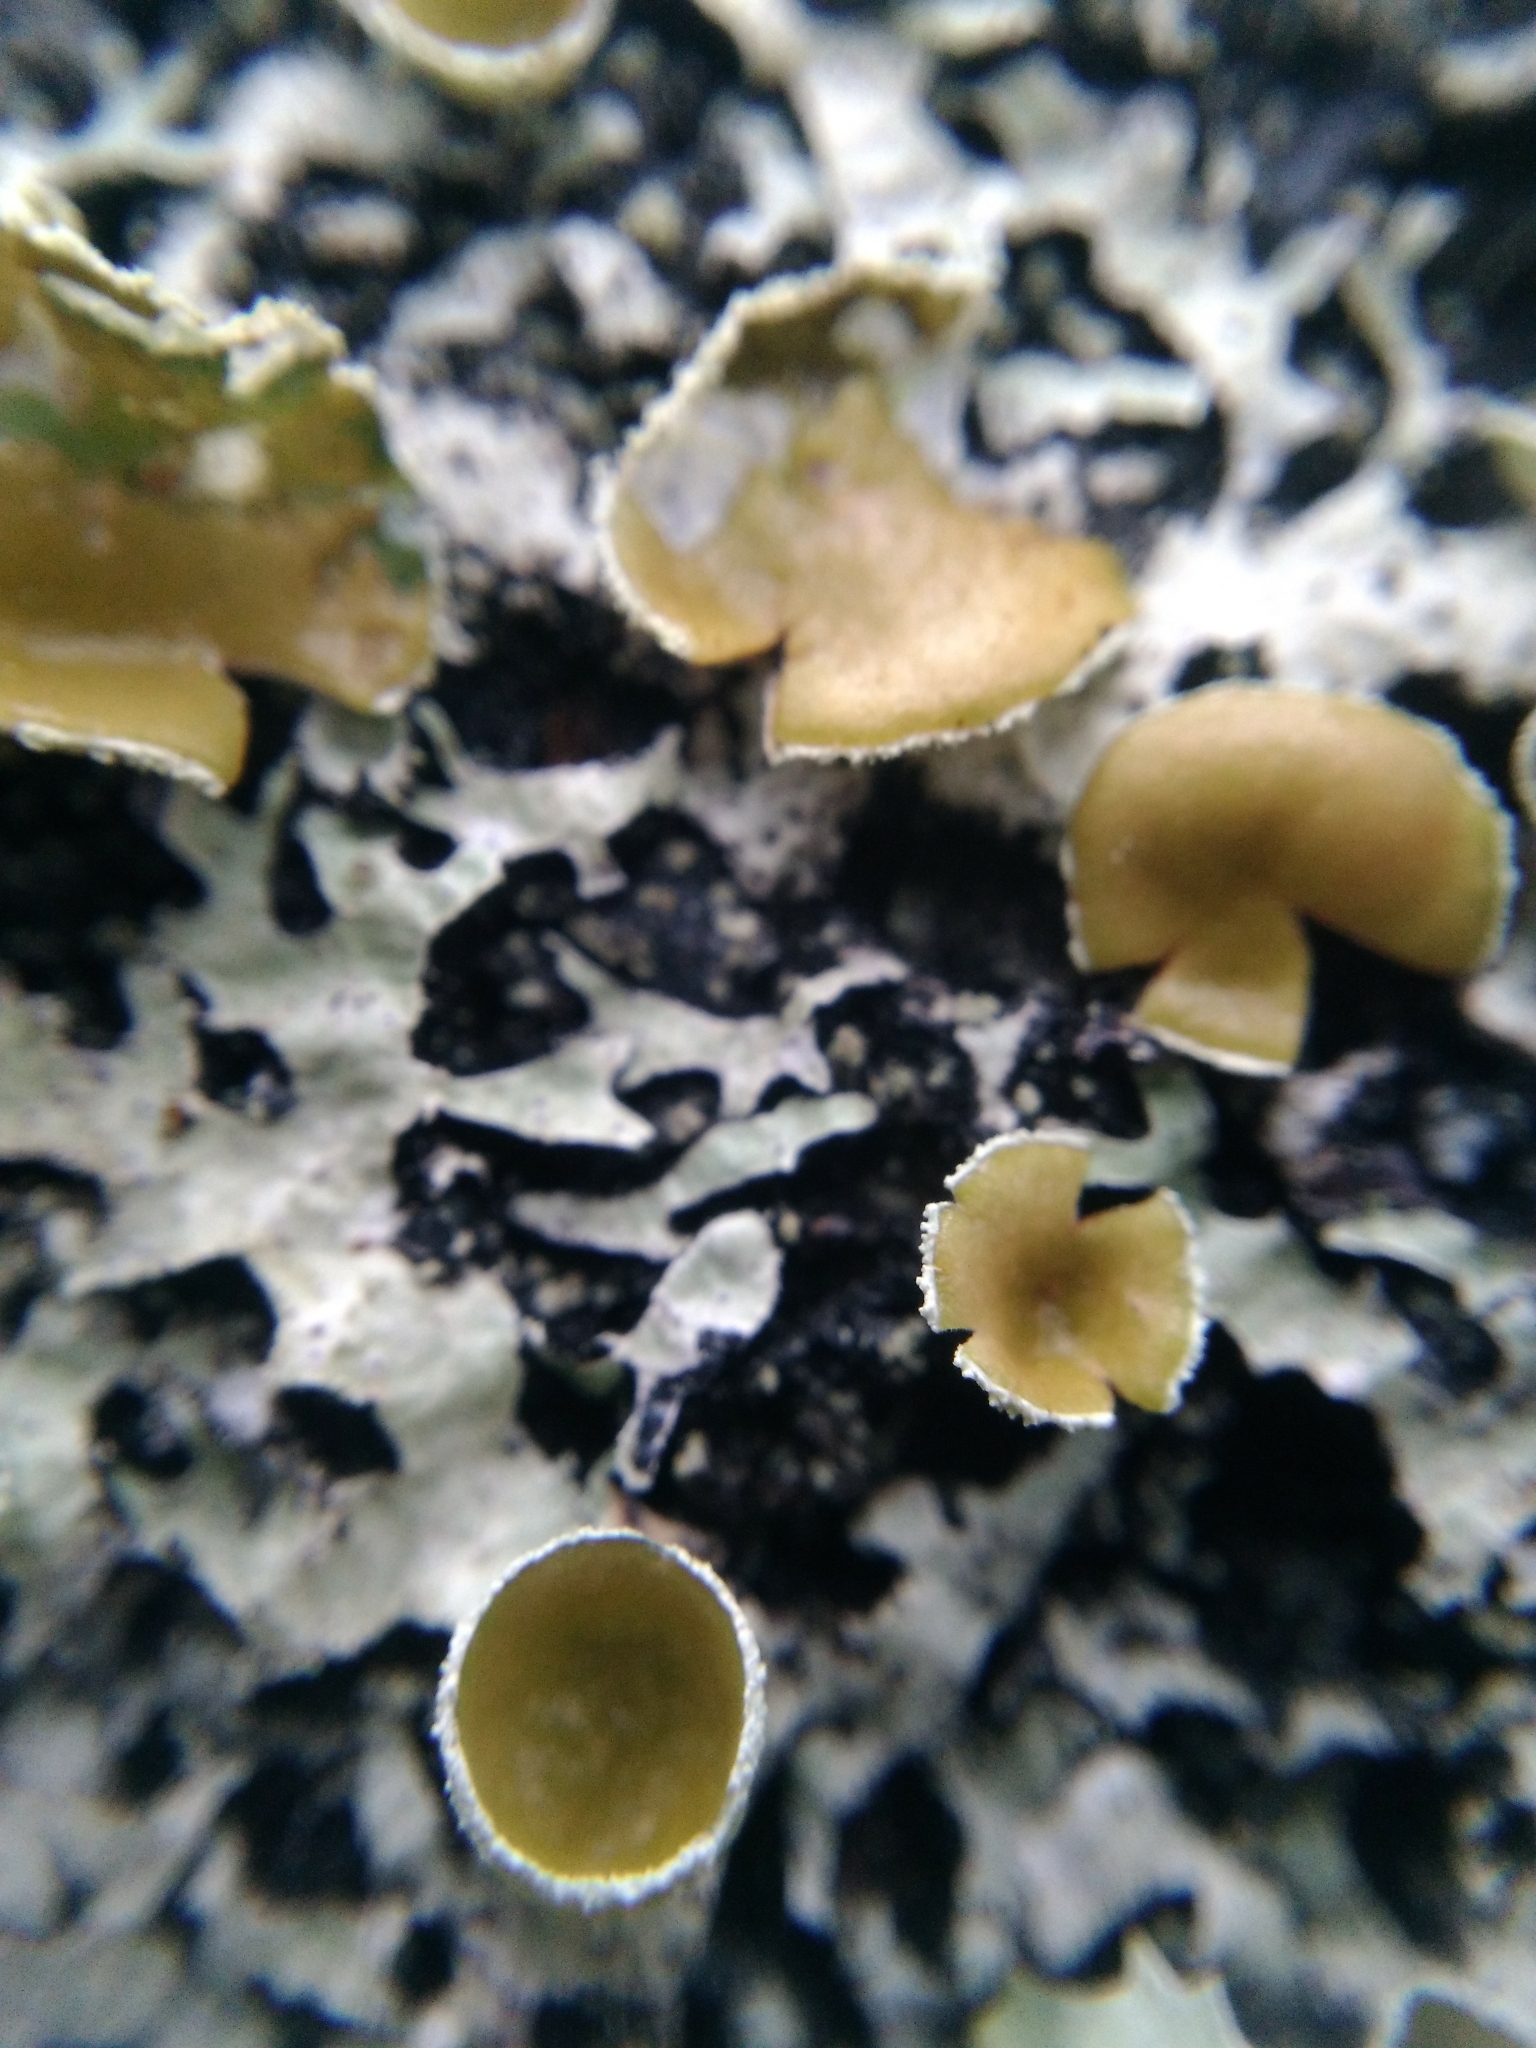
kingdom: Fungi
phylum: Ascomycota
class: Lecanoromycetes
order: Lecanorales
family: Parmeliaceae
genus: Parmelia
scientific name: Parmelia squarrosa
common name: Bottle brush shield lichen
